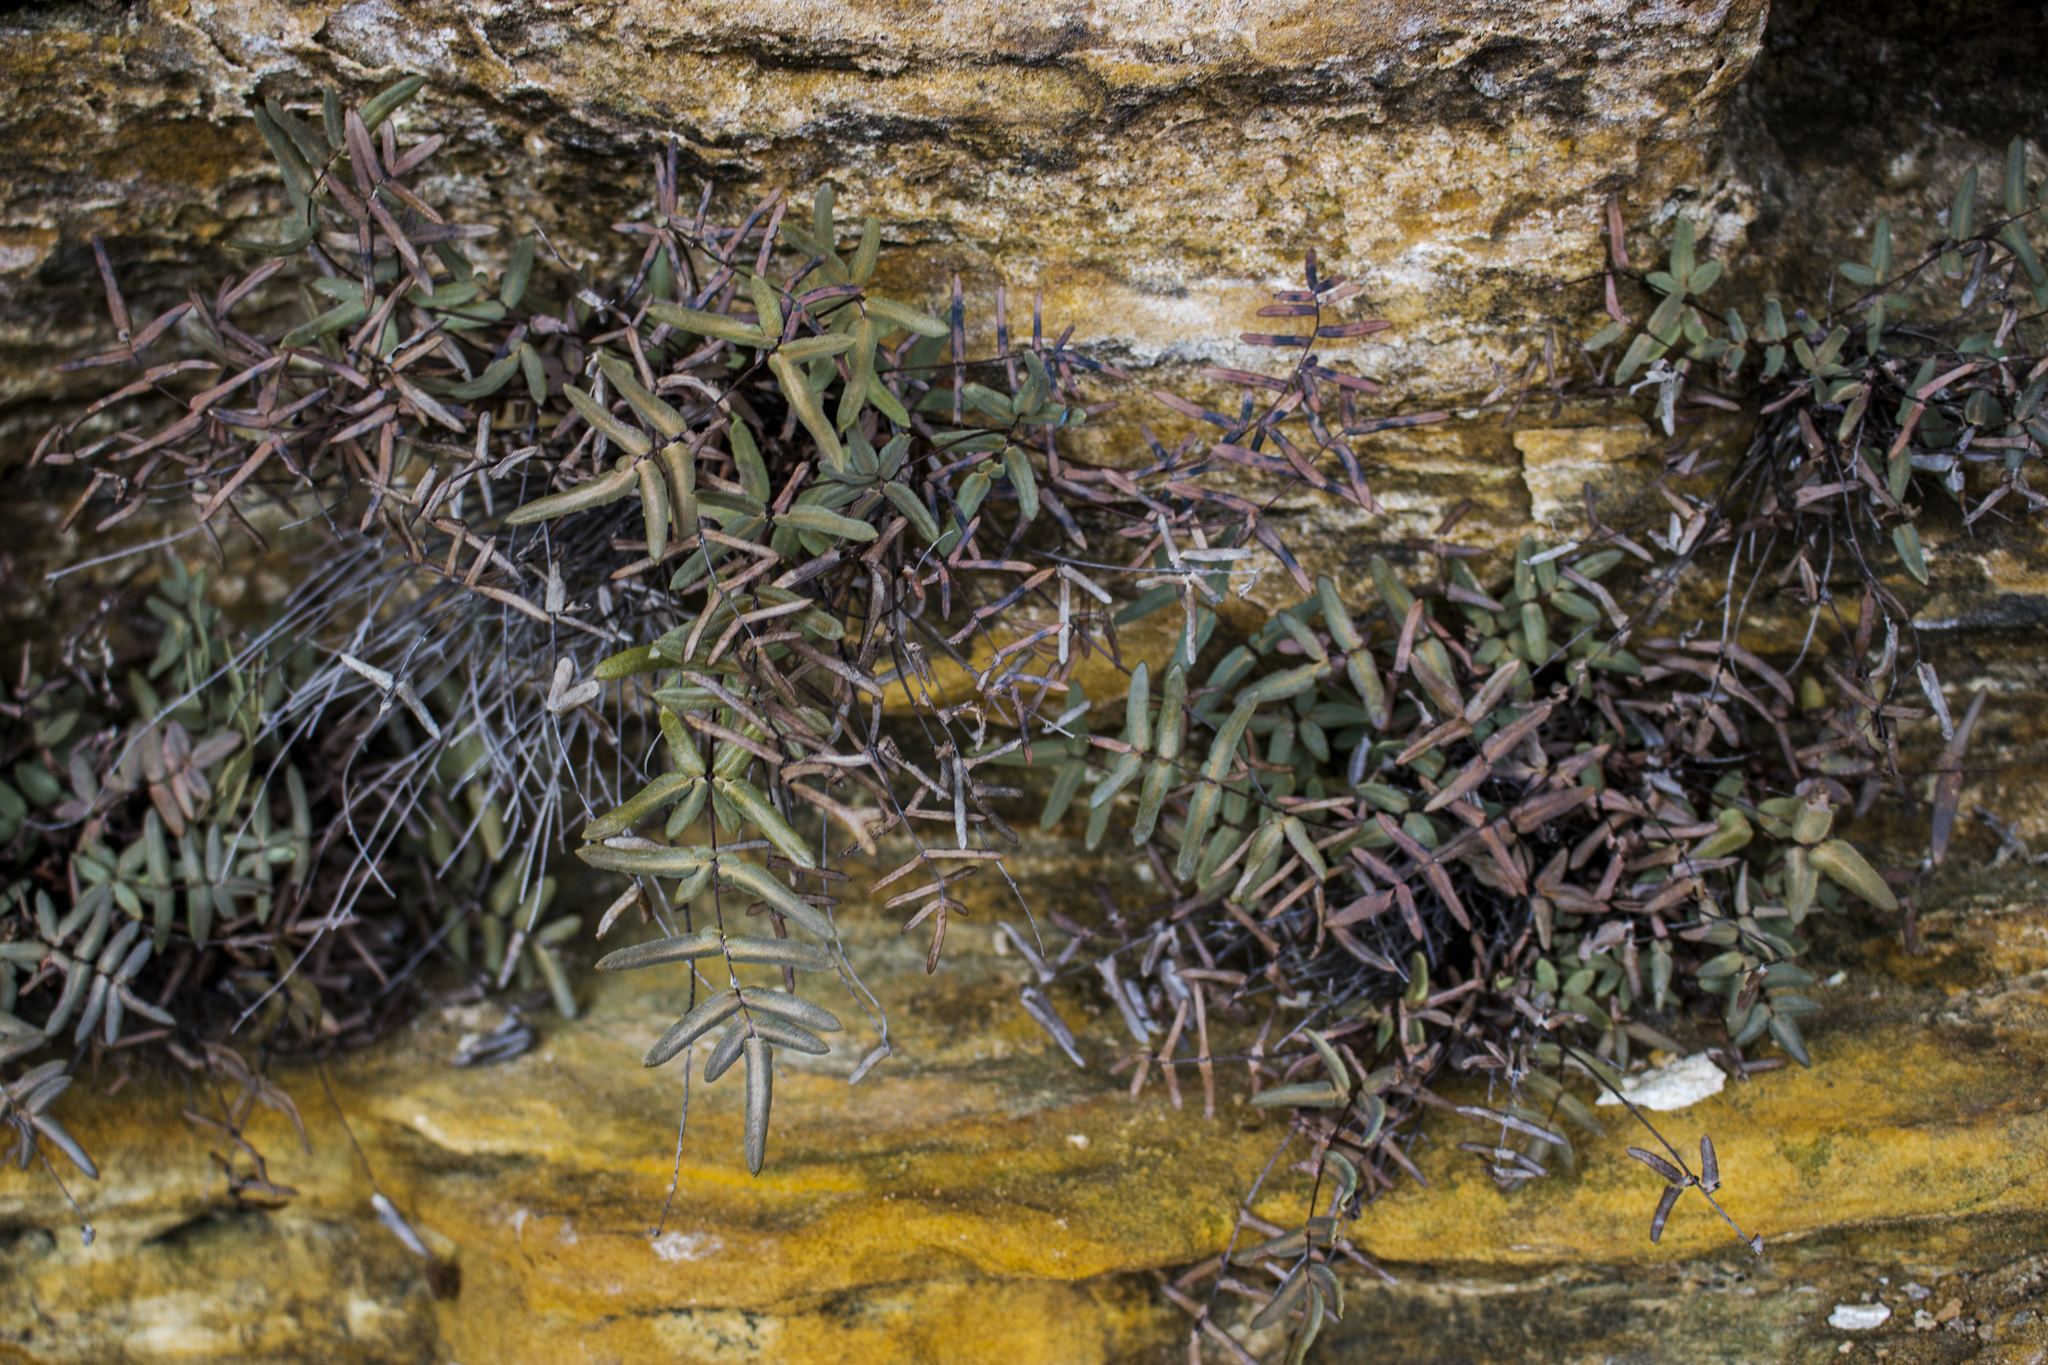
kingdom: Plantae
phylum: Tracheophyta
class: Polypodiopsida
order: Polypodiales
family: Pteridaceae
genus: Pellaea
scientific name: Pellaea glabella
